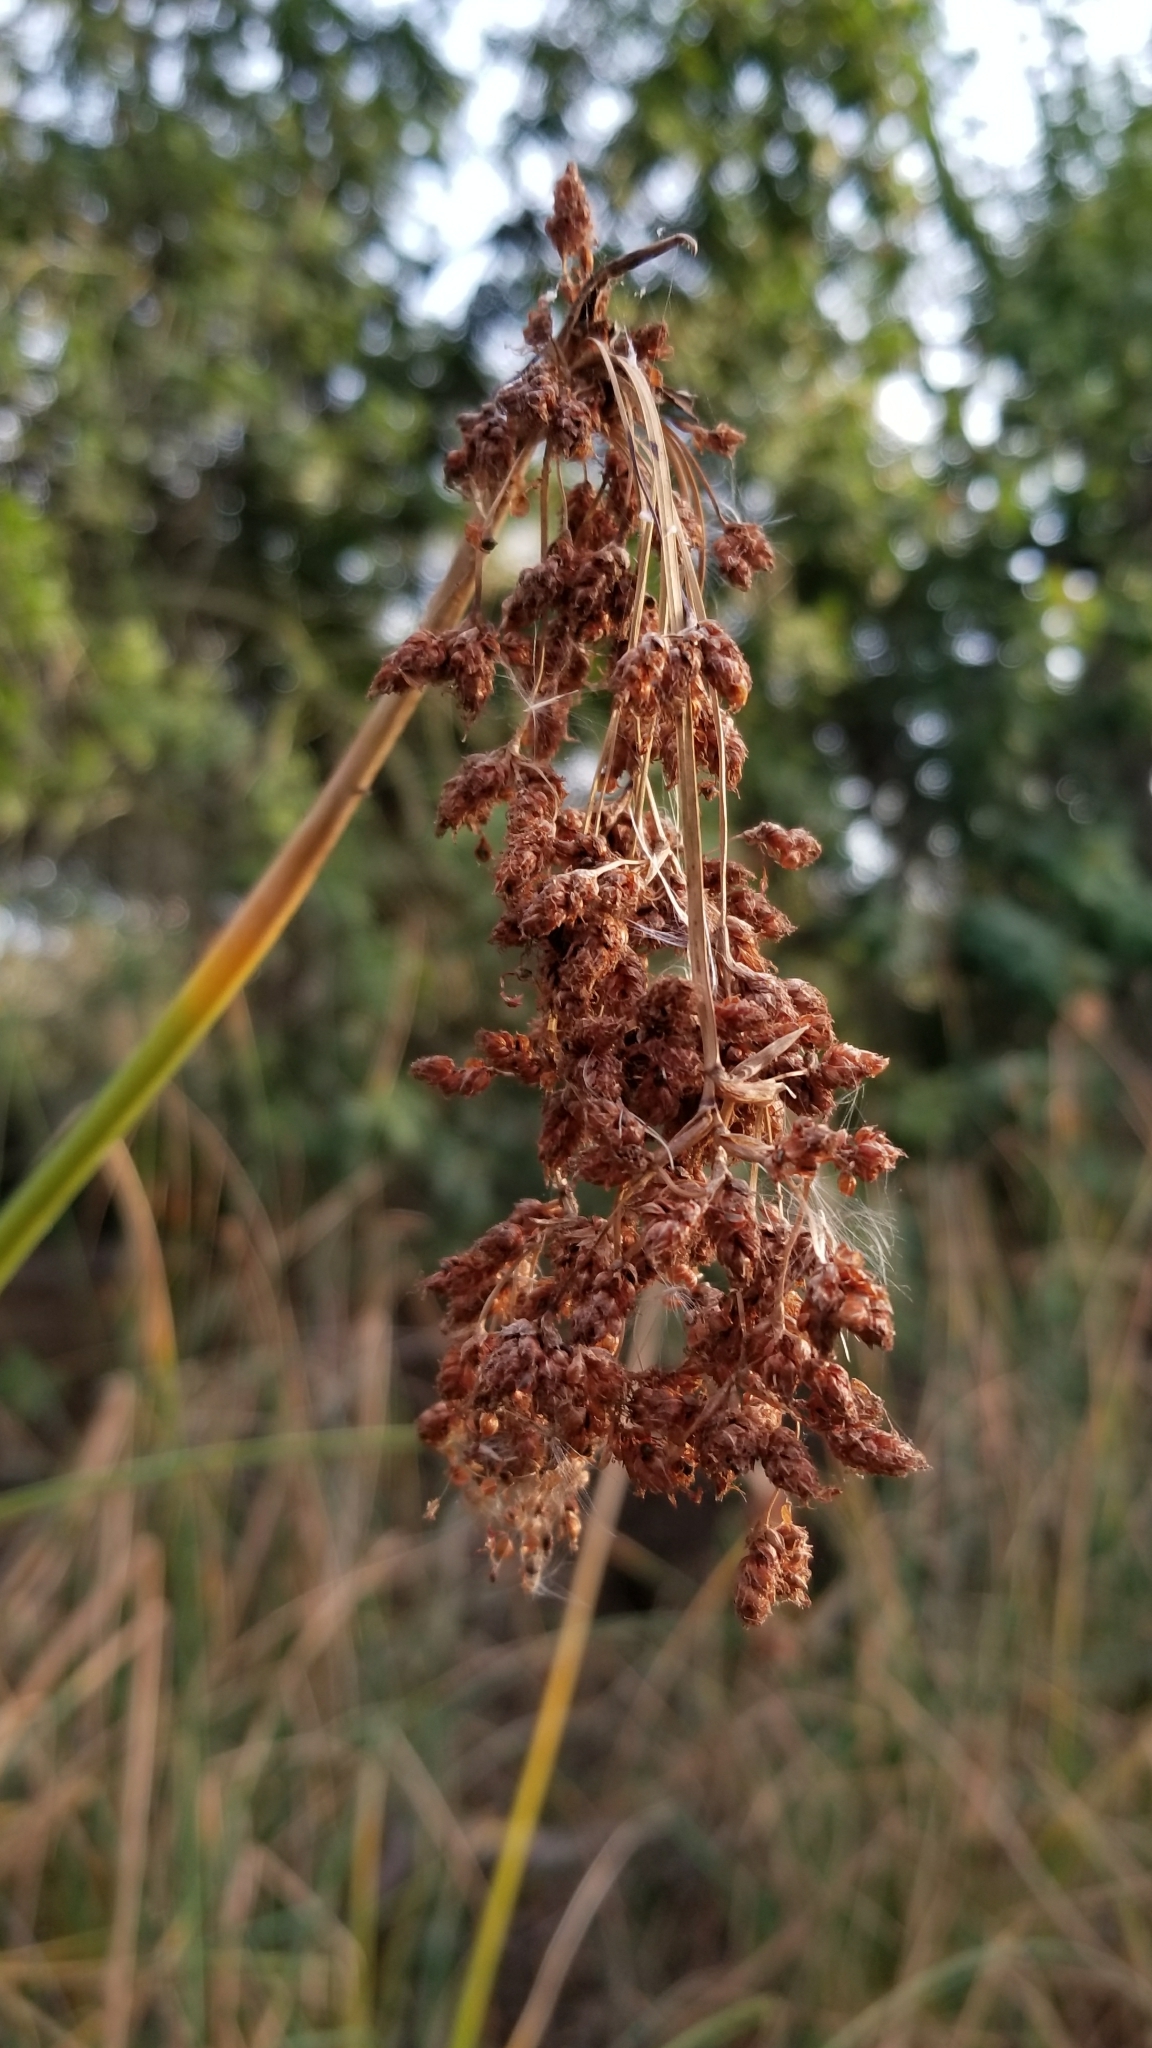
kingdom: Plantae
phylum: Tracheophyta
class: Liliopsida
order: Poales
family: Cyperaceae
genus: Schoenoplectus
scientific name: Schoenoplectus tabernaemontani
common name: Grey club-rush
